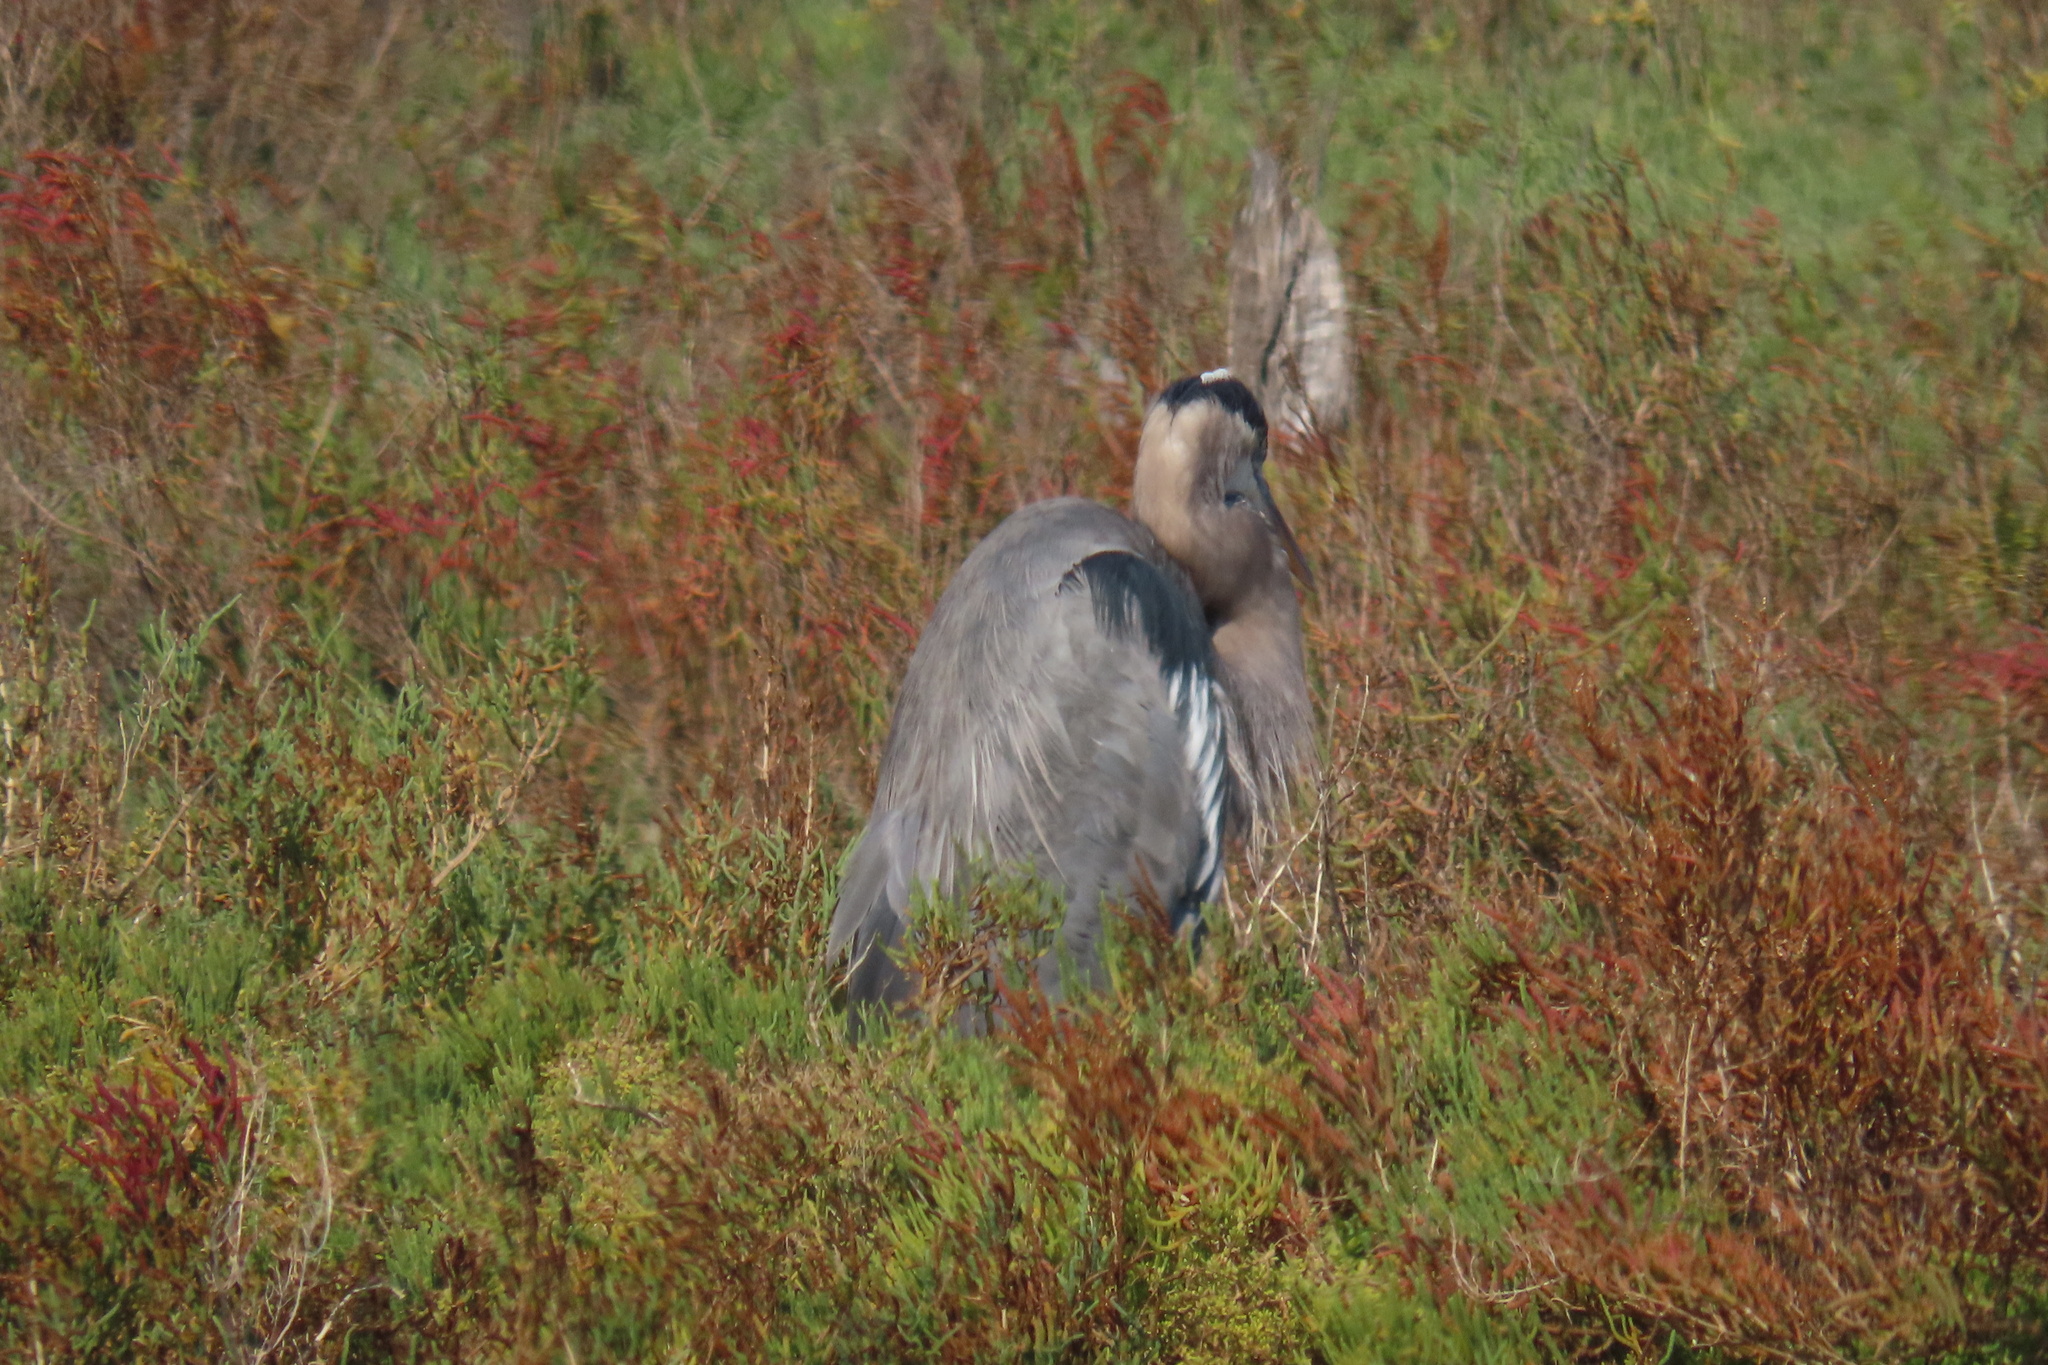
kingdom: Animalia
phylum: Chordata
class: Aves
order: Pelecaniformes
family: Ardeidae
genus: Ardea
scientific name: Ardea herodias
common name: Great blue heron
